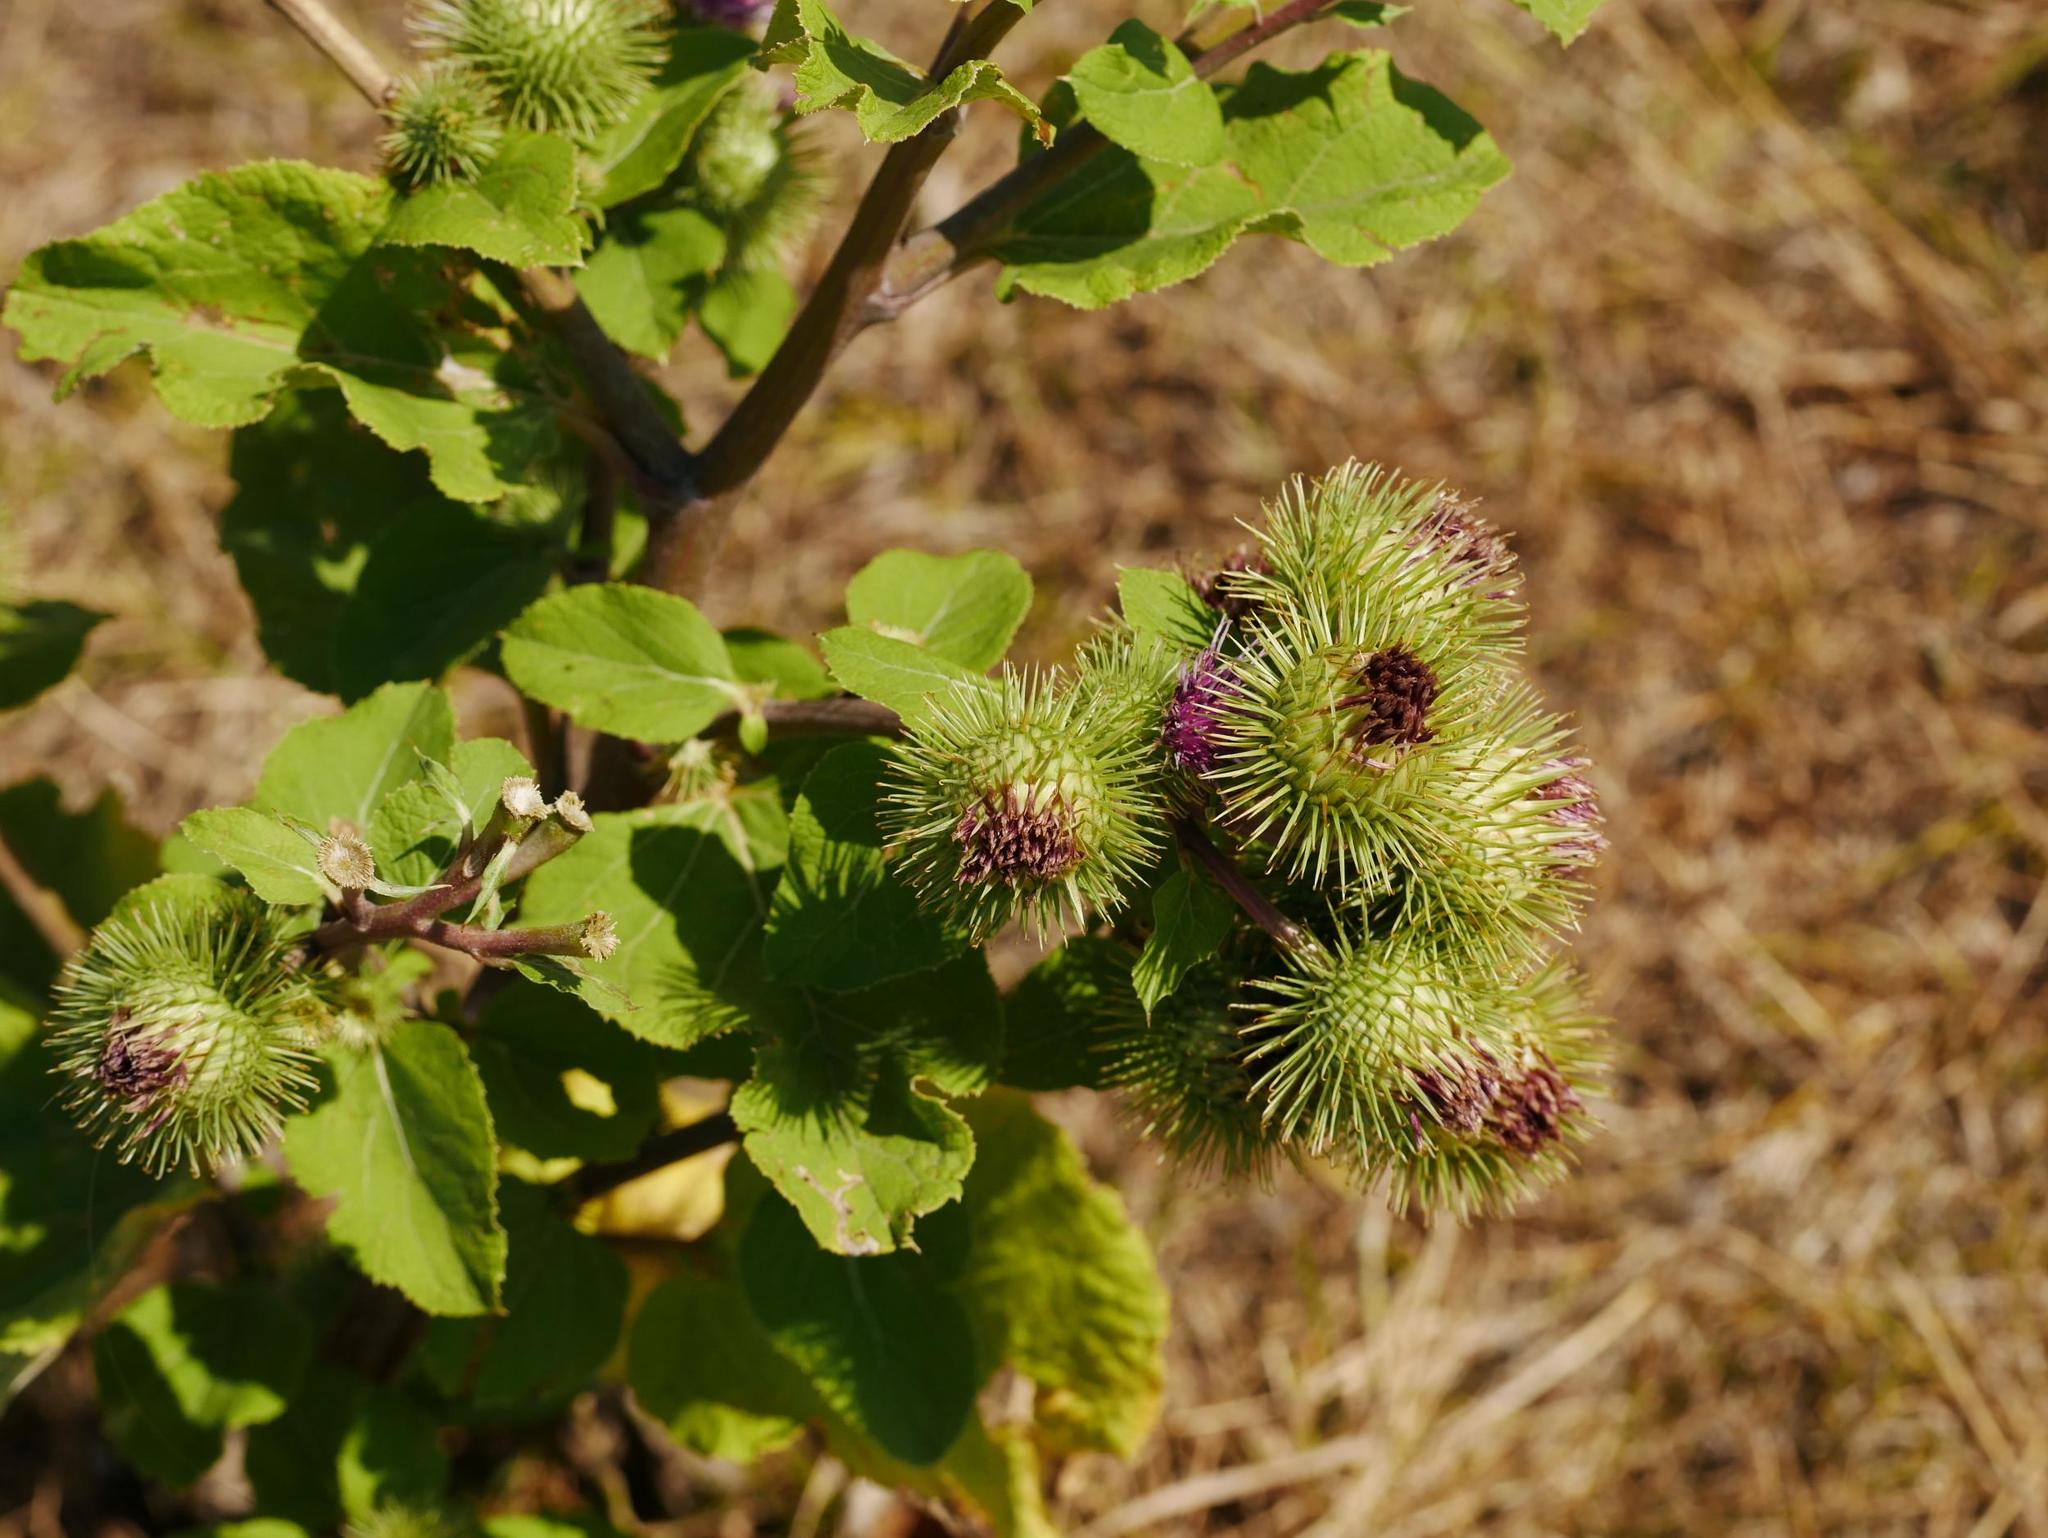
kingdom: Plantae
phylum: Tracheophyta
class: Magnoliopsida
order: Asterales
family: Asteraceae
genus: Arctium
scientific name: Arctium lappa
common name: Greater burdock
